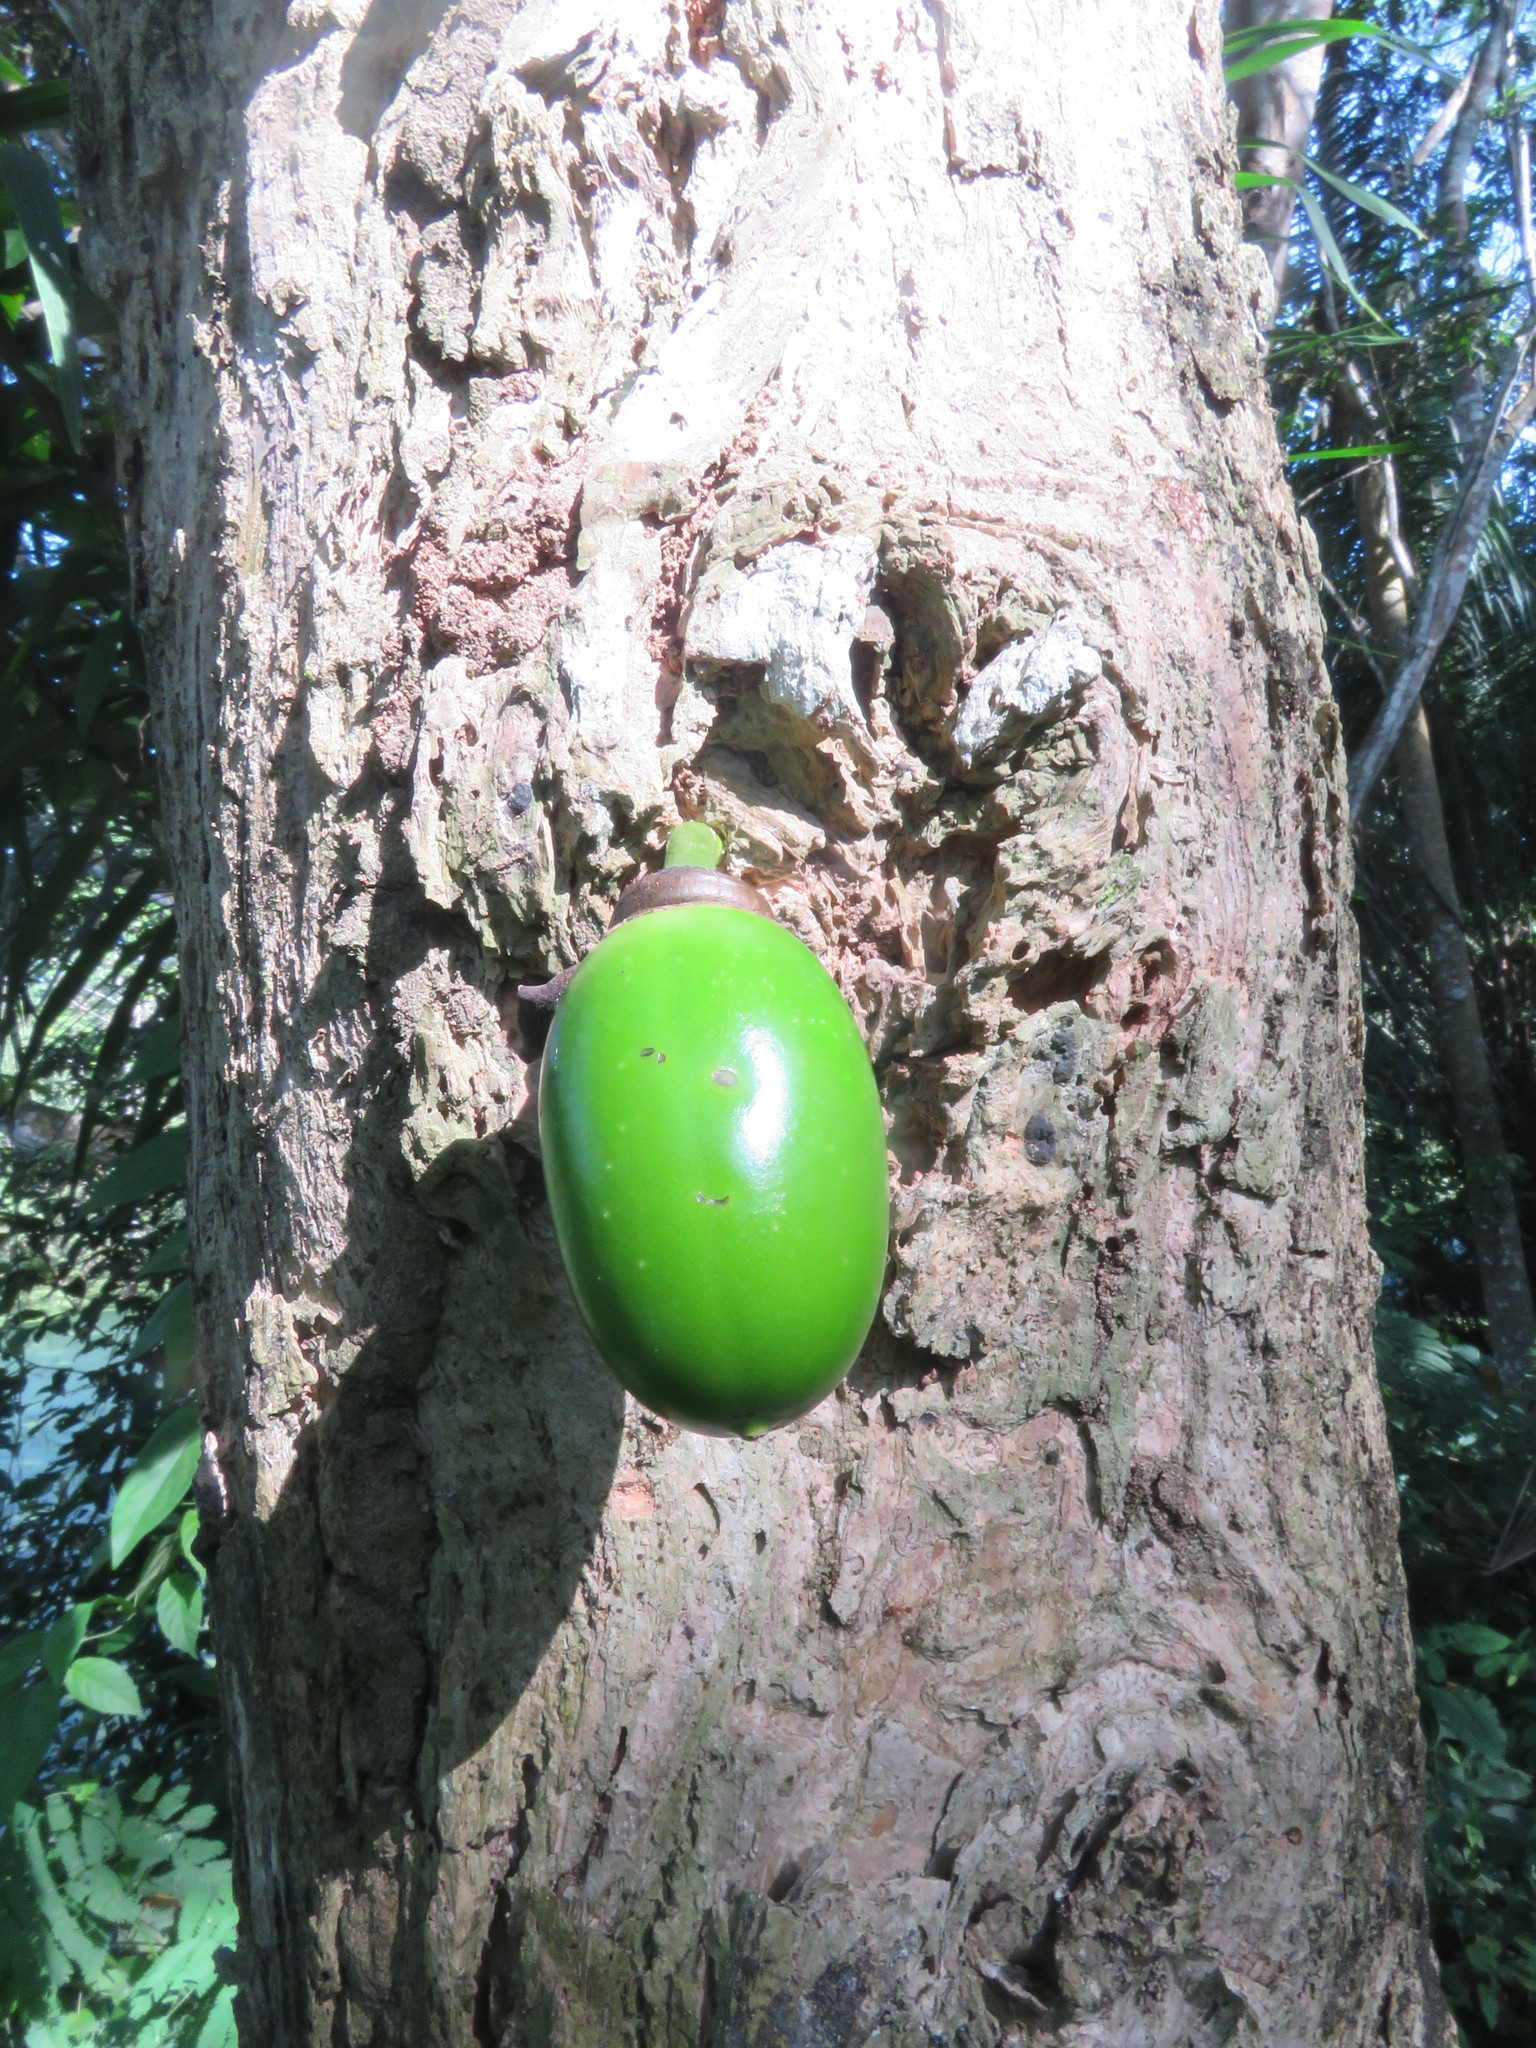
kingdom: Plantae
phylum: Tracheophyta
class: Magnoliopsida
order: Lamiales
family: Bignoniaceae
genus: Crescentia
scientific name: Crescentia cujete
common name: Calabash
